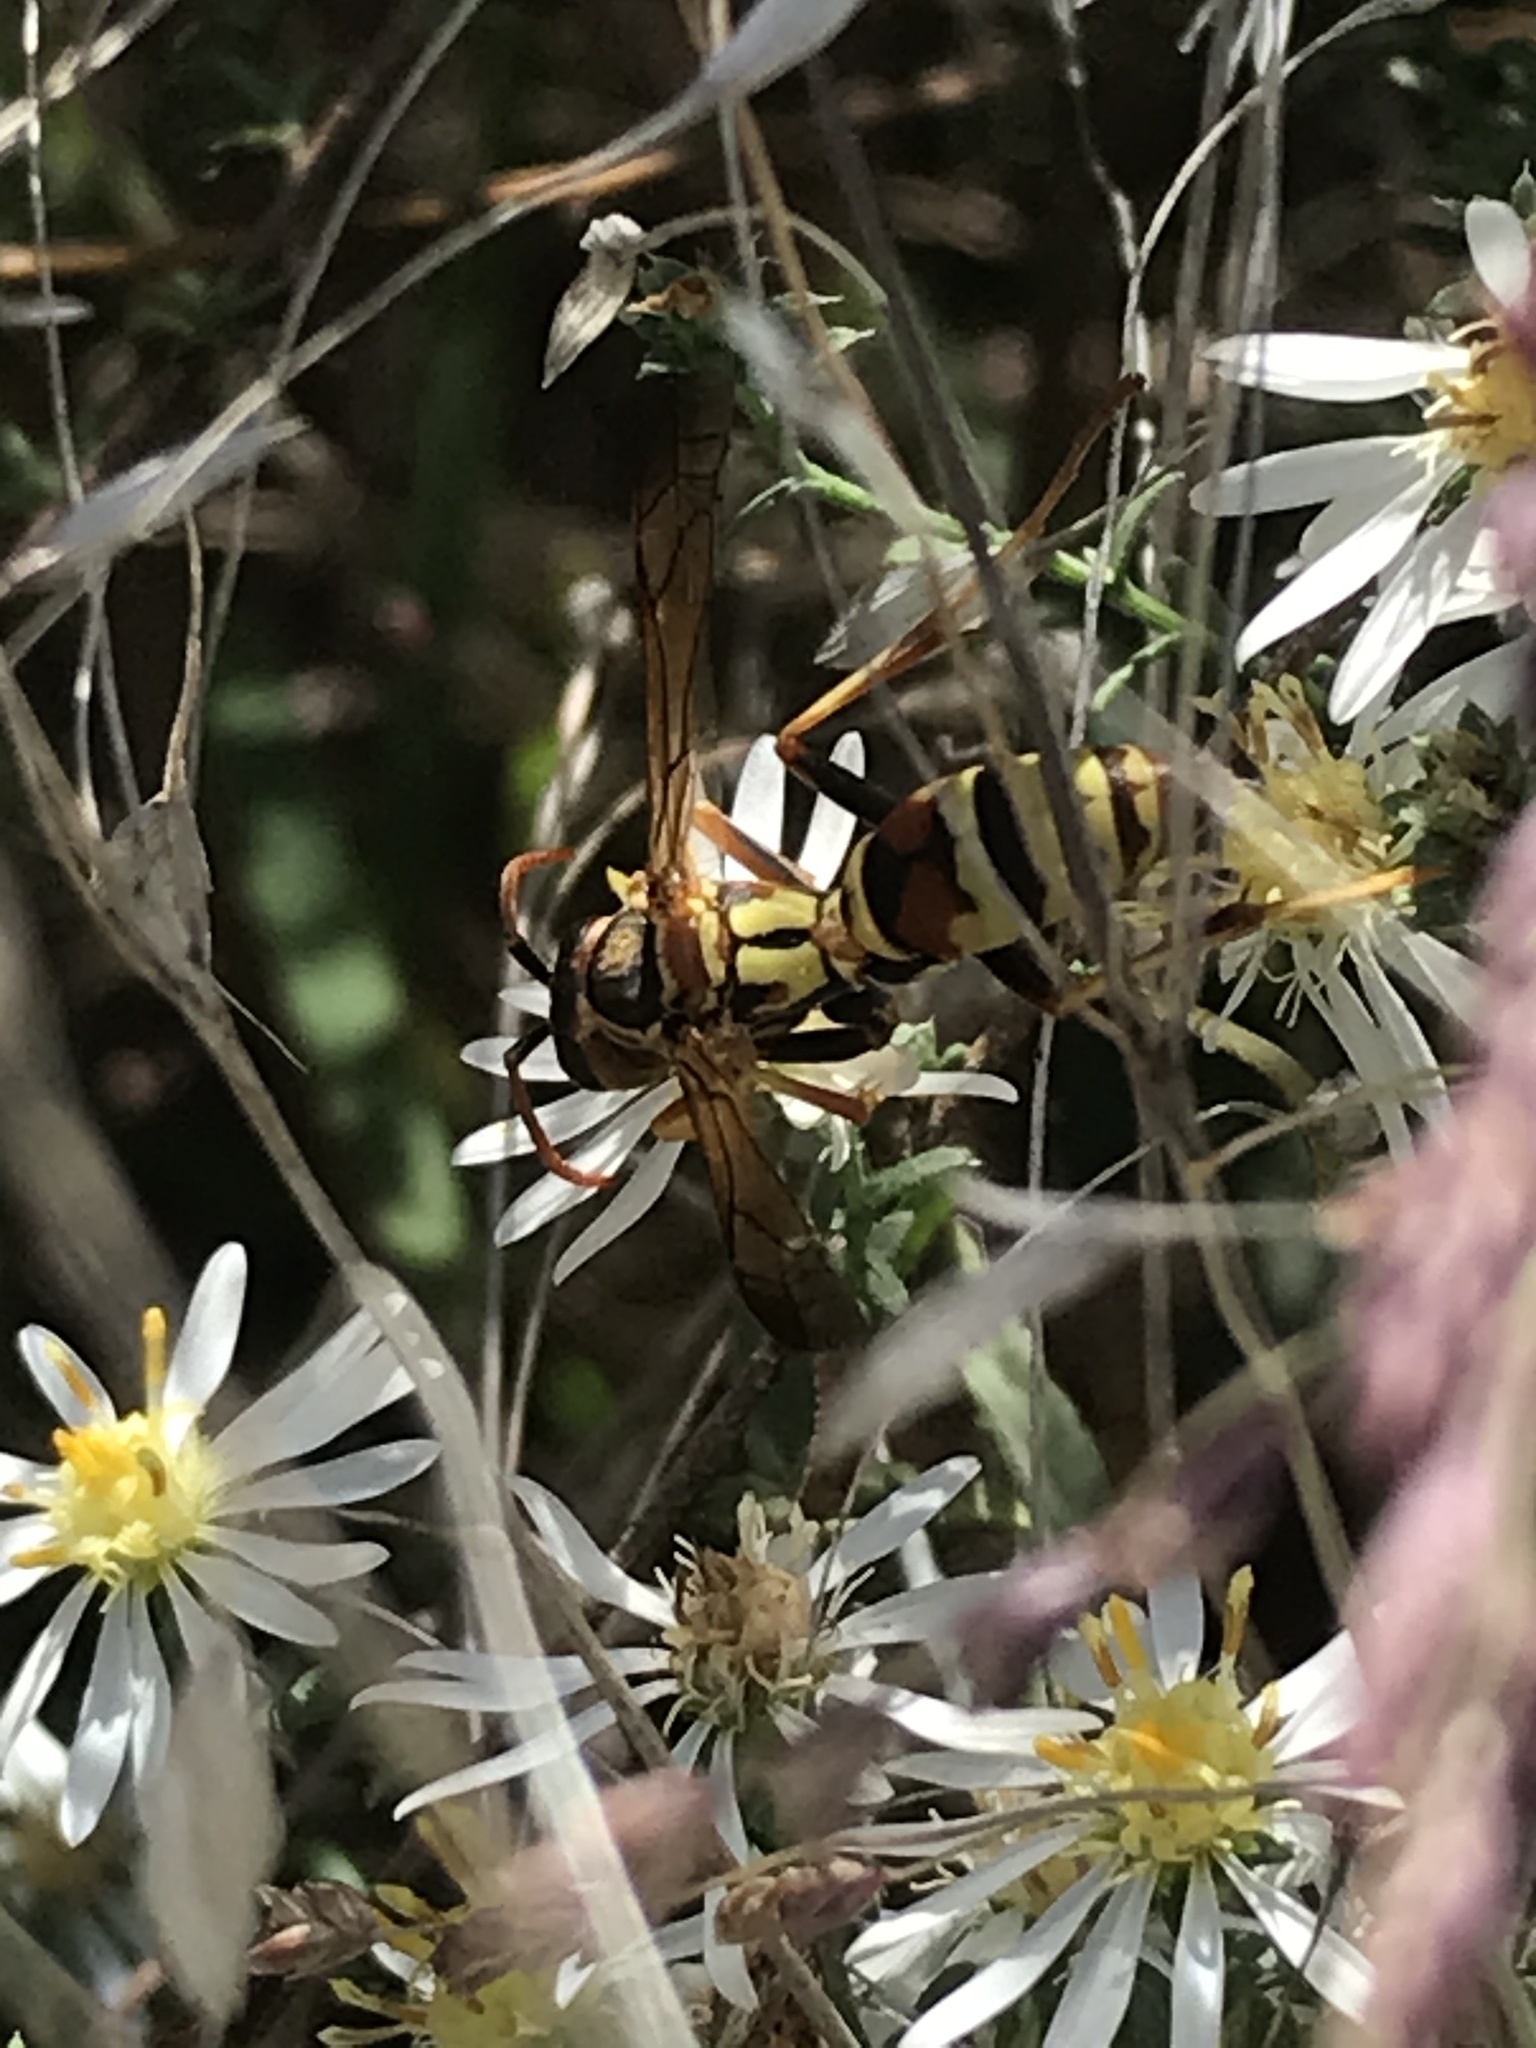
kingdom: Animalia
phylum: Arthropoda
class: Insecta
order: Hymenoptera
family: Eumenidae
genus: Polistes
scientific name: Polistes dorsalis
